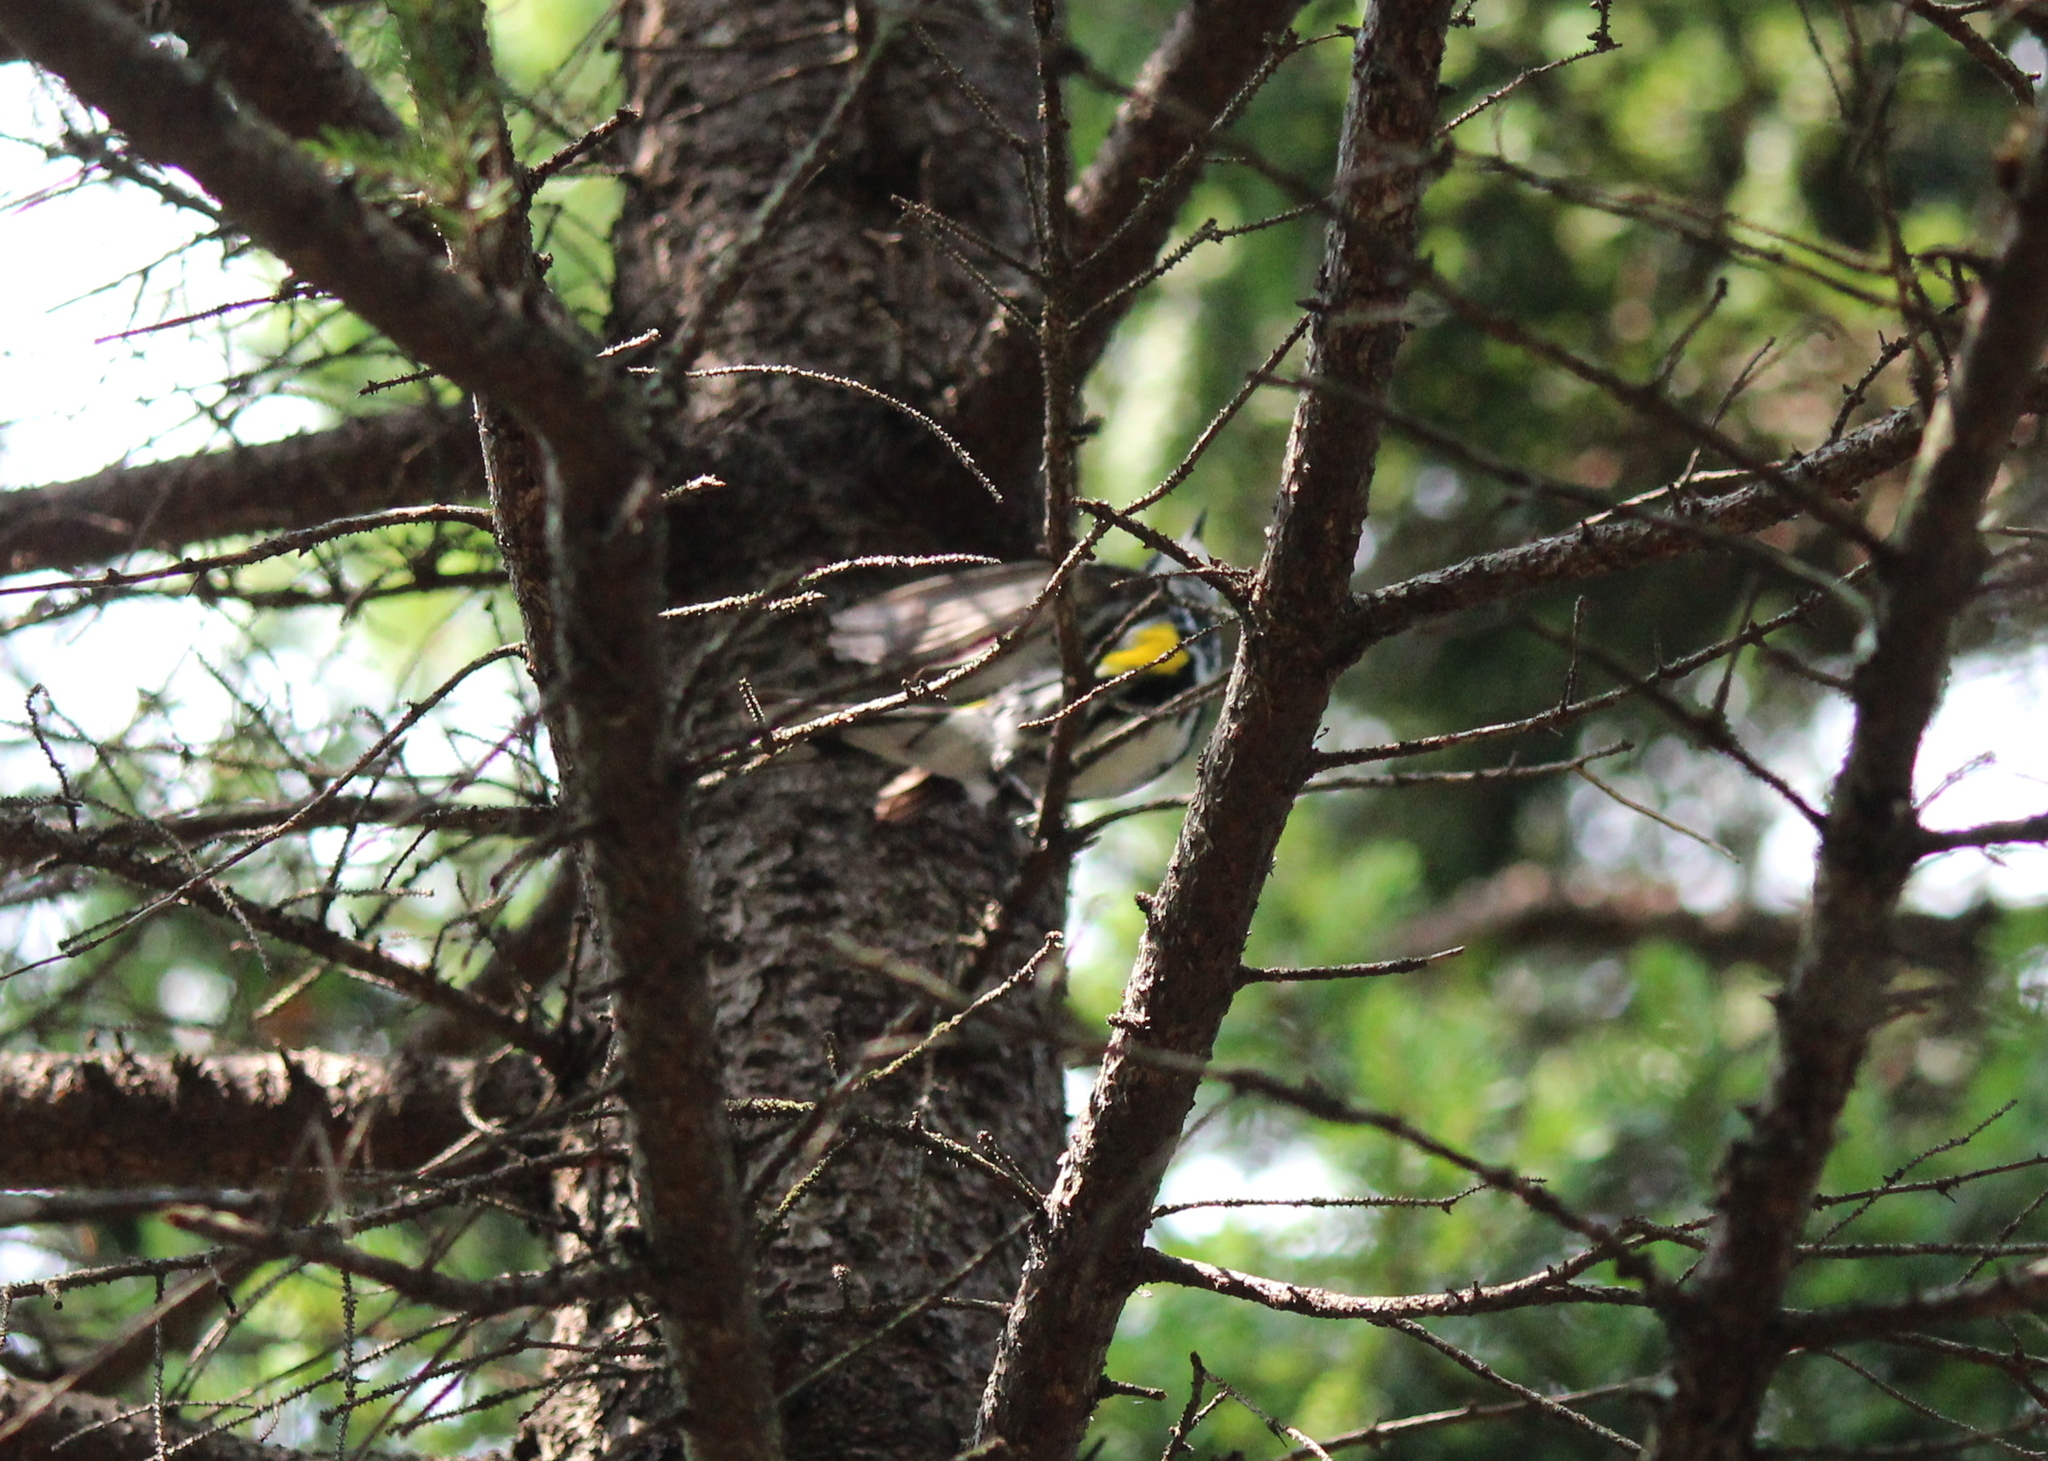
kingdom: Animalia
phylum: Chordata
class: Aves
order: Passeriformes
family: Parulidae
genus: Setophaga
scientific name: Setophaga coronata
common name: Myrtle warbler
